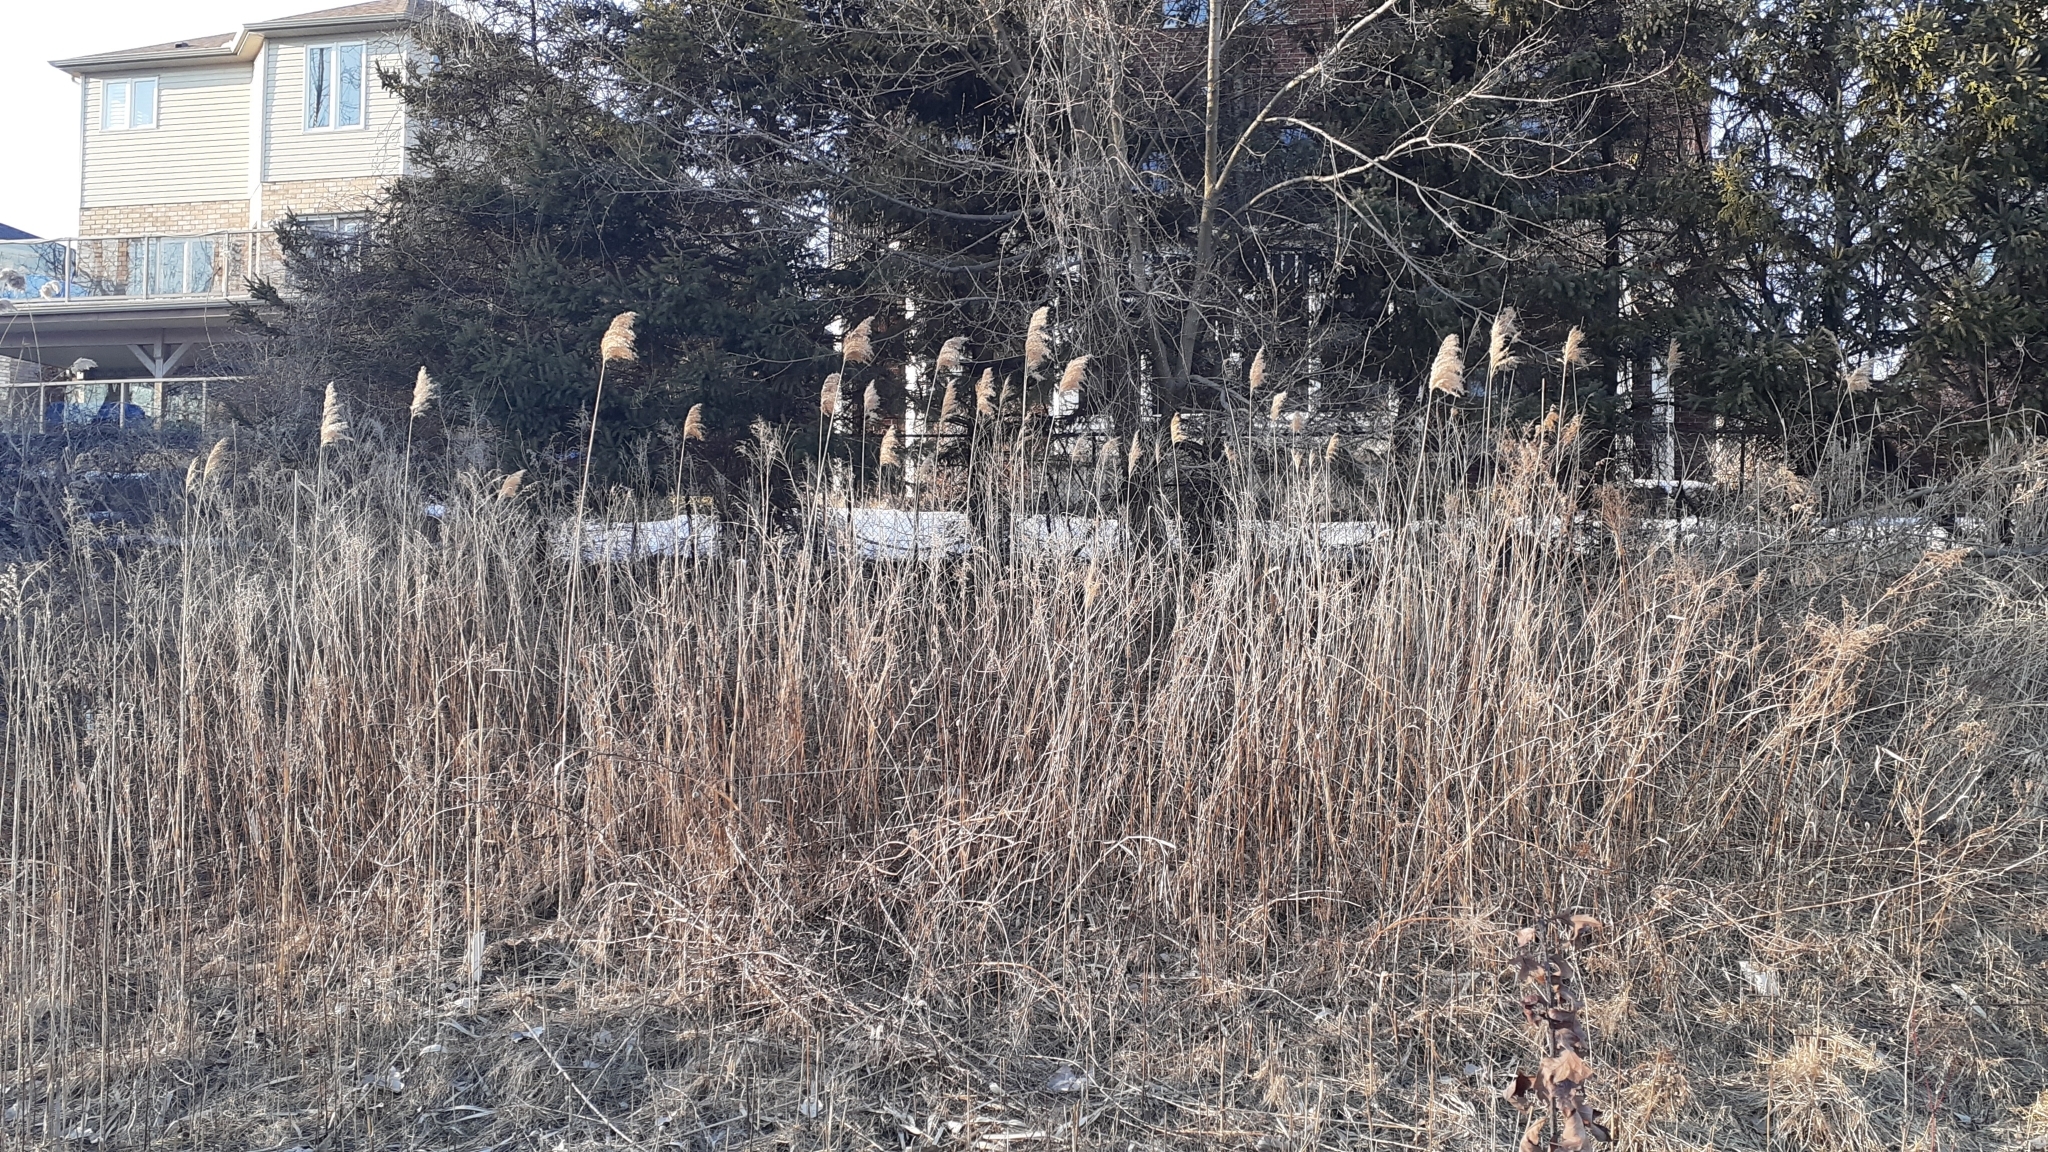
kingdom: Plantae
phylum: Tracheophyta
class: Liliopsida
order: Poales
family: Poaceae
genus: Phragmites
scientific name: Phragmites australis
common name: Common reed
